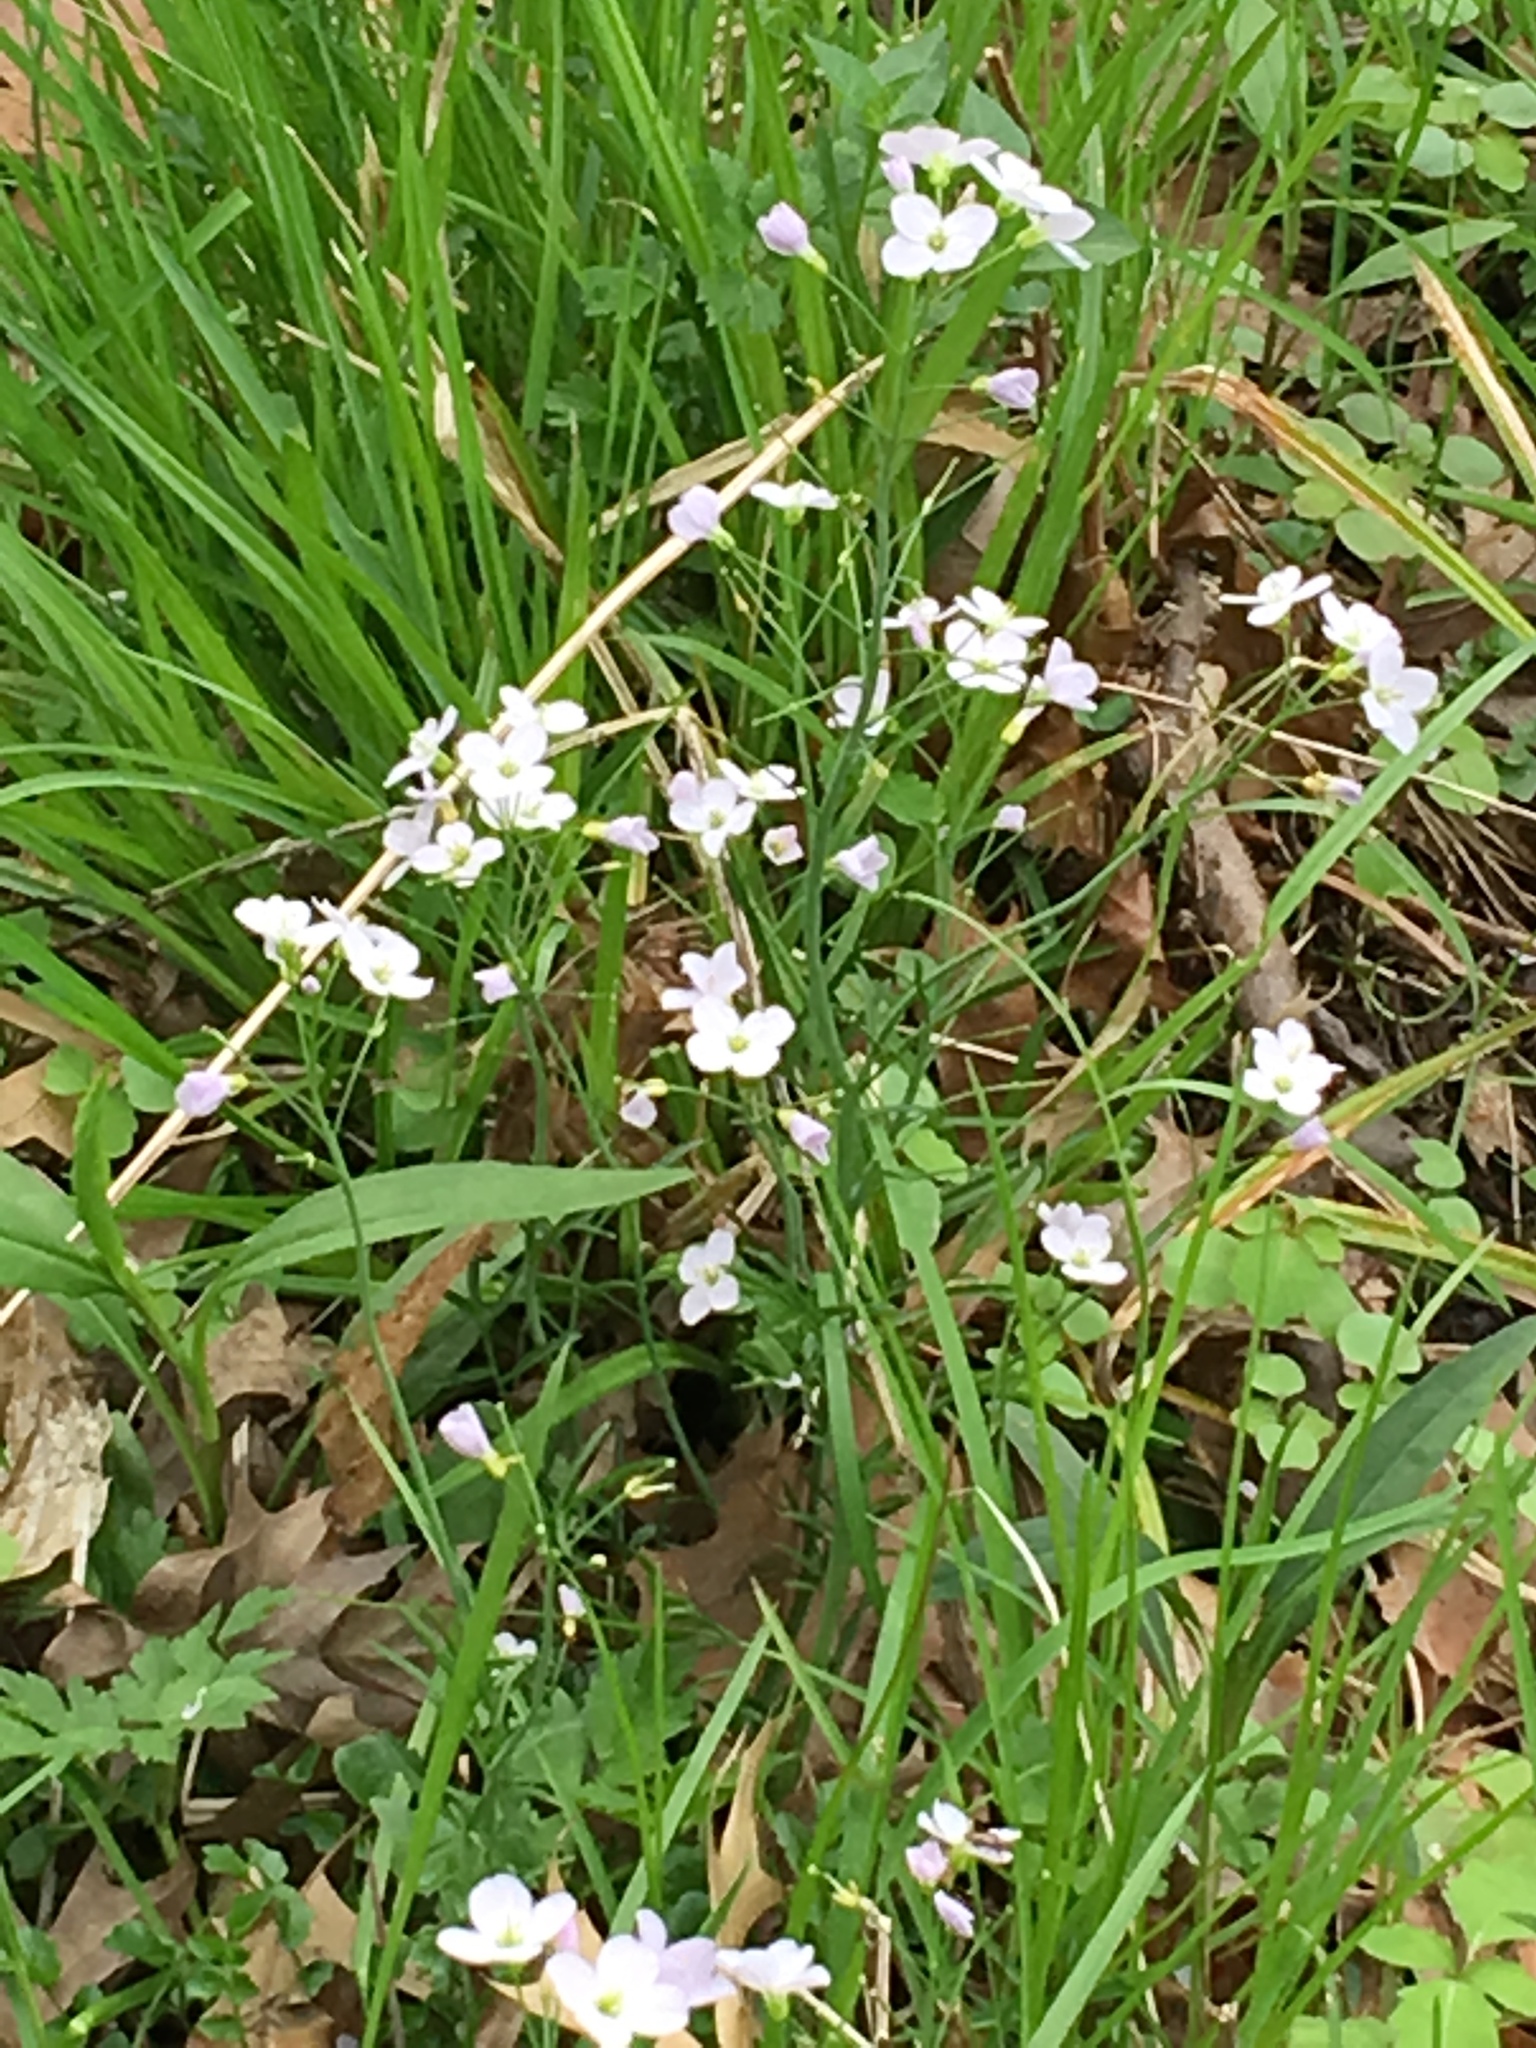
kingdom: Plantae
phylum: Tracheophyta
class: Magnoliopsida
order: Brassicales
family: Brassicaceae
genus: Cardamine
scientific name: Cardamine pratensis
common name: Cuckoo flower
